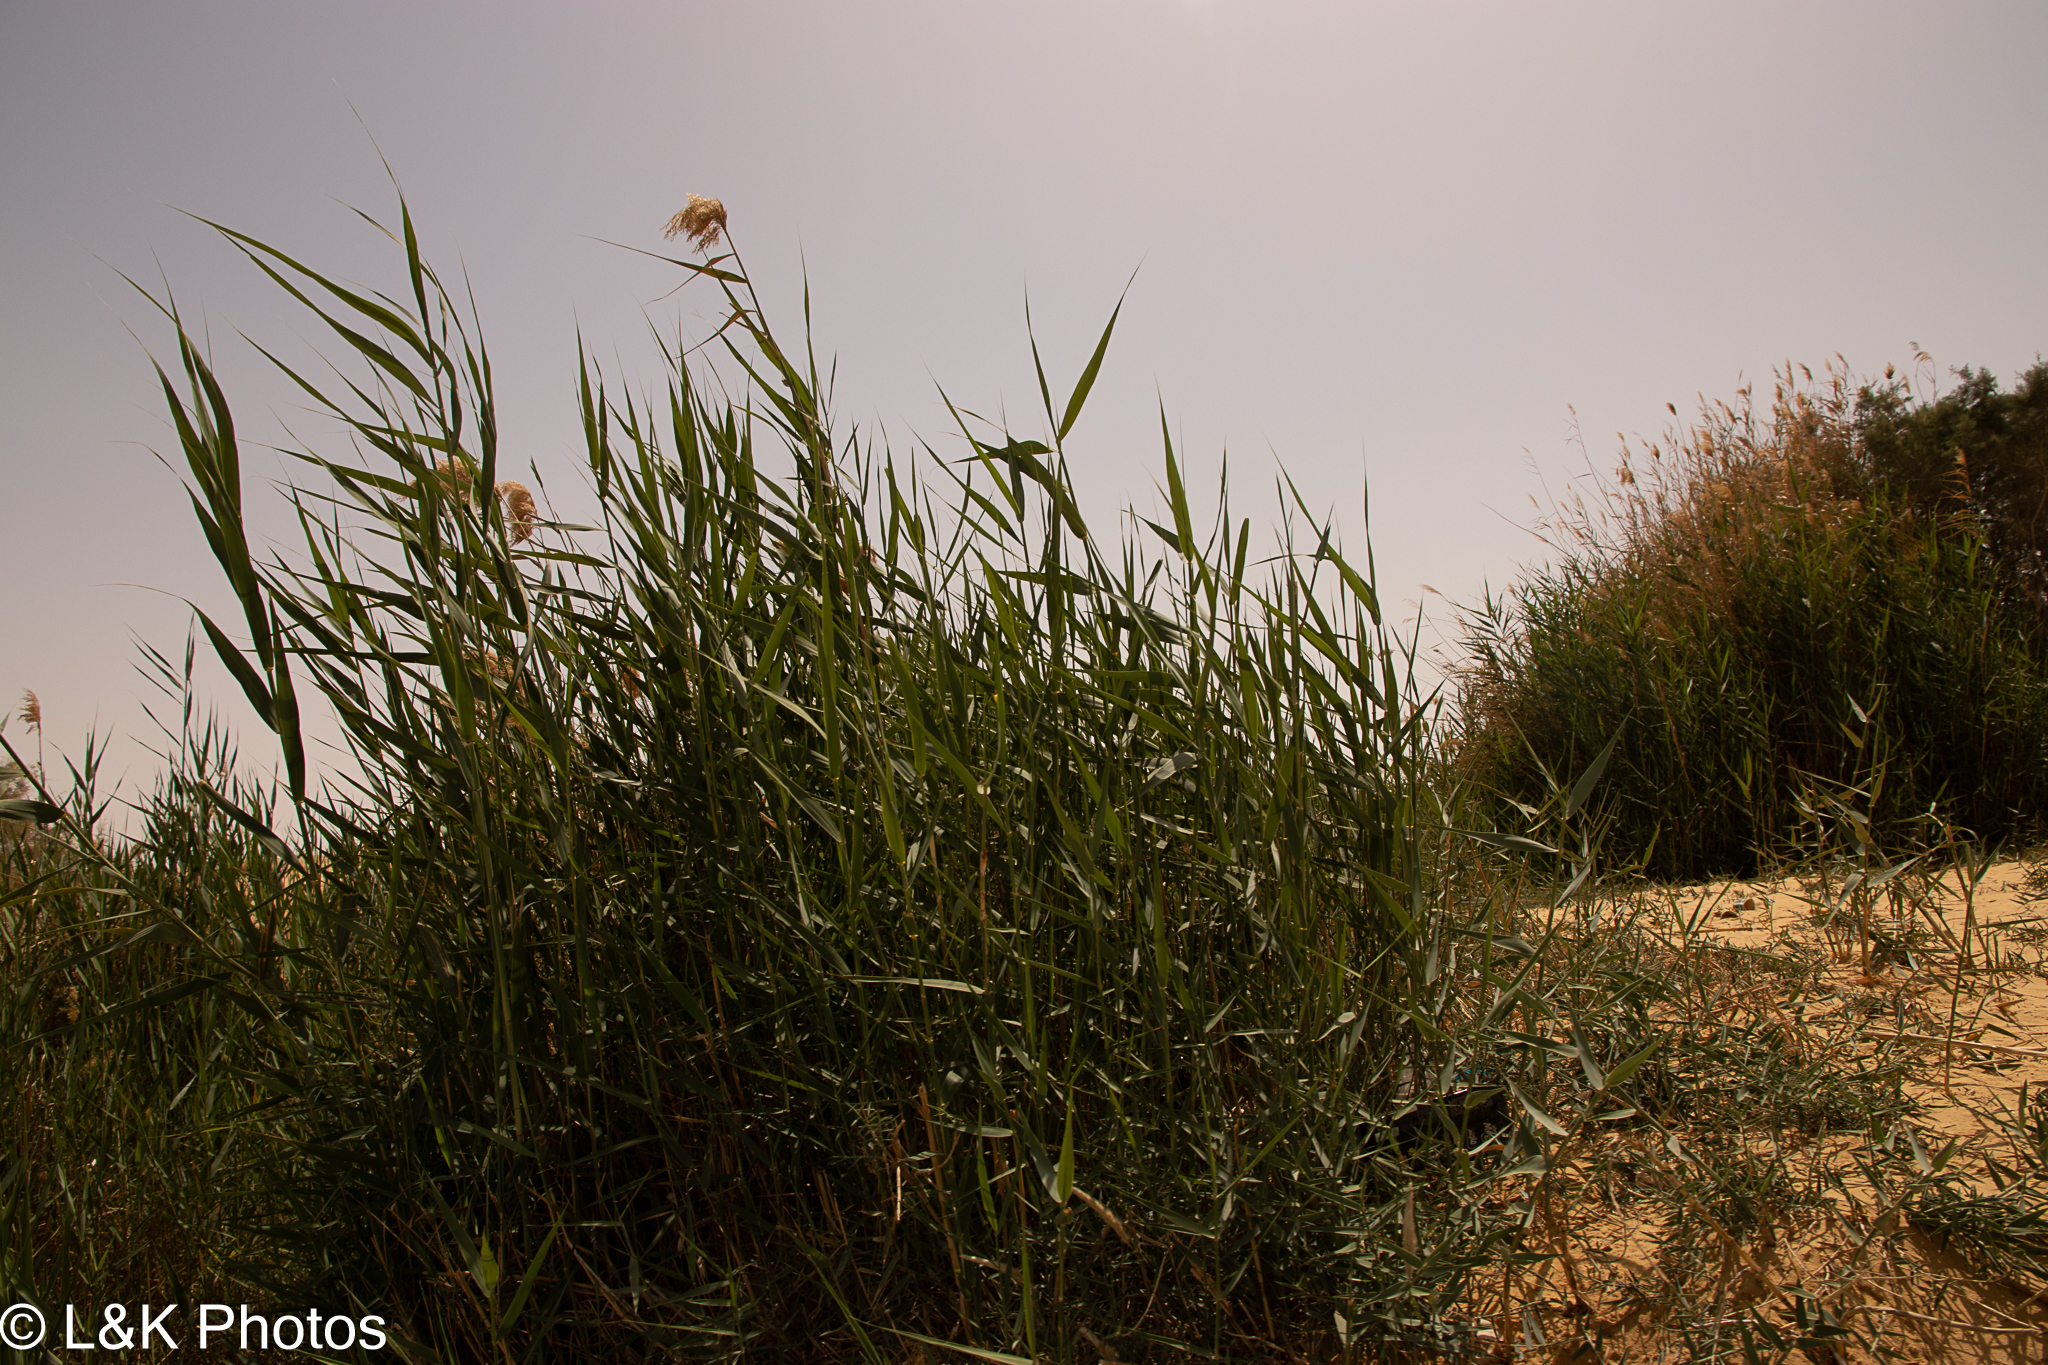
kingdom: Plantae
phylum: Tracheophyta
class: Liliopsida
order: Poales
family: Poaceae
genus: Phragmites
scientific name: Phragmites australis
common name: Common reed
